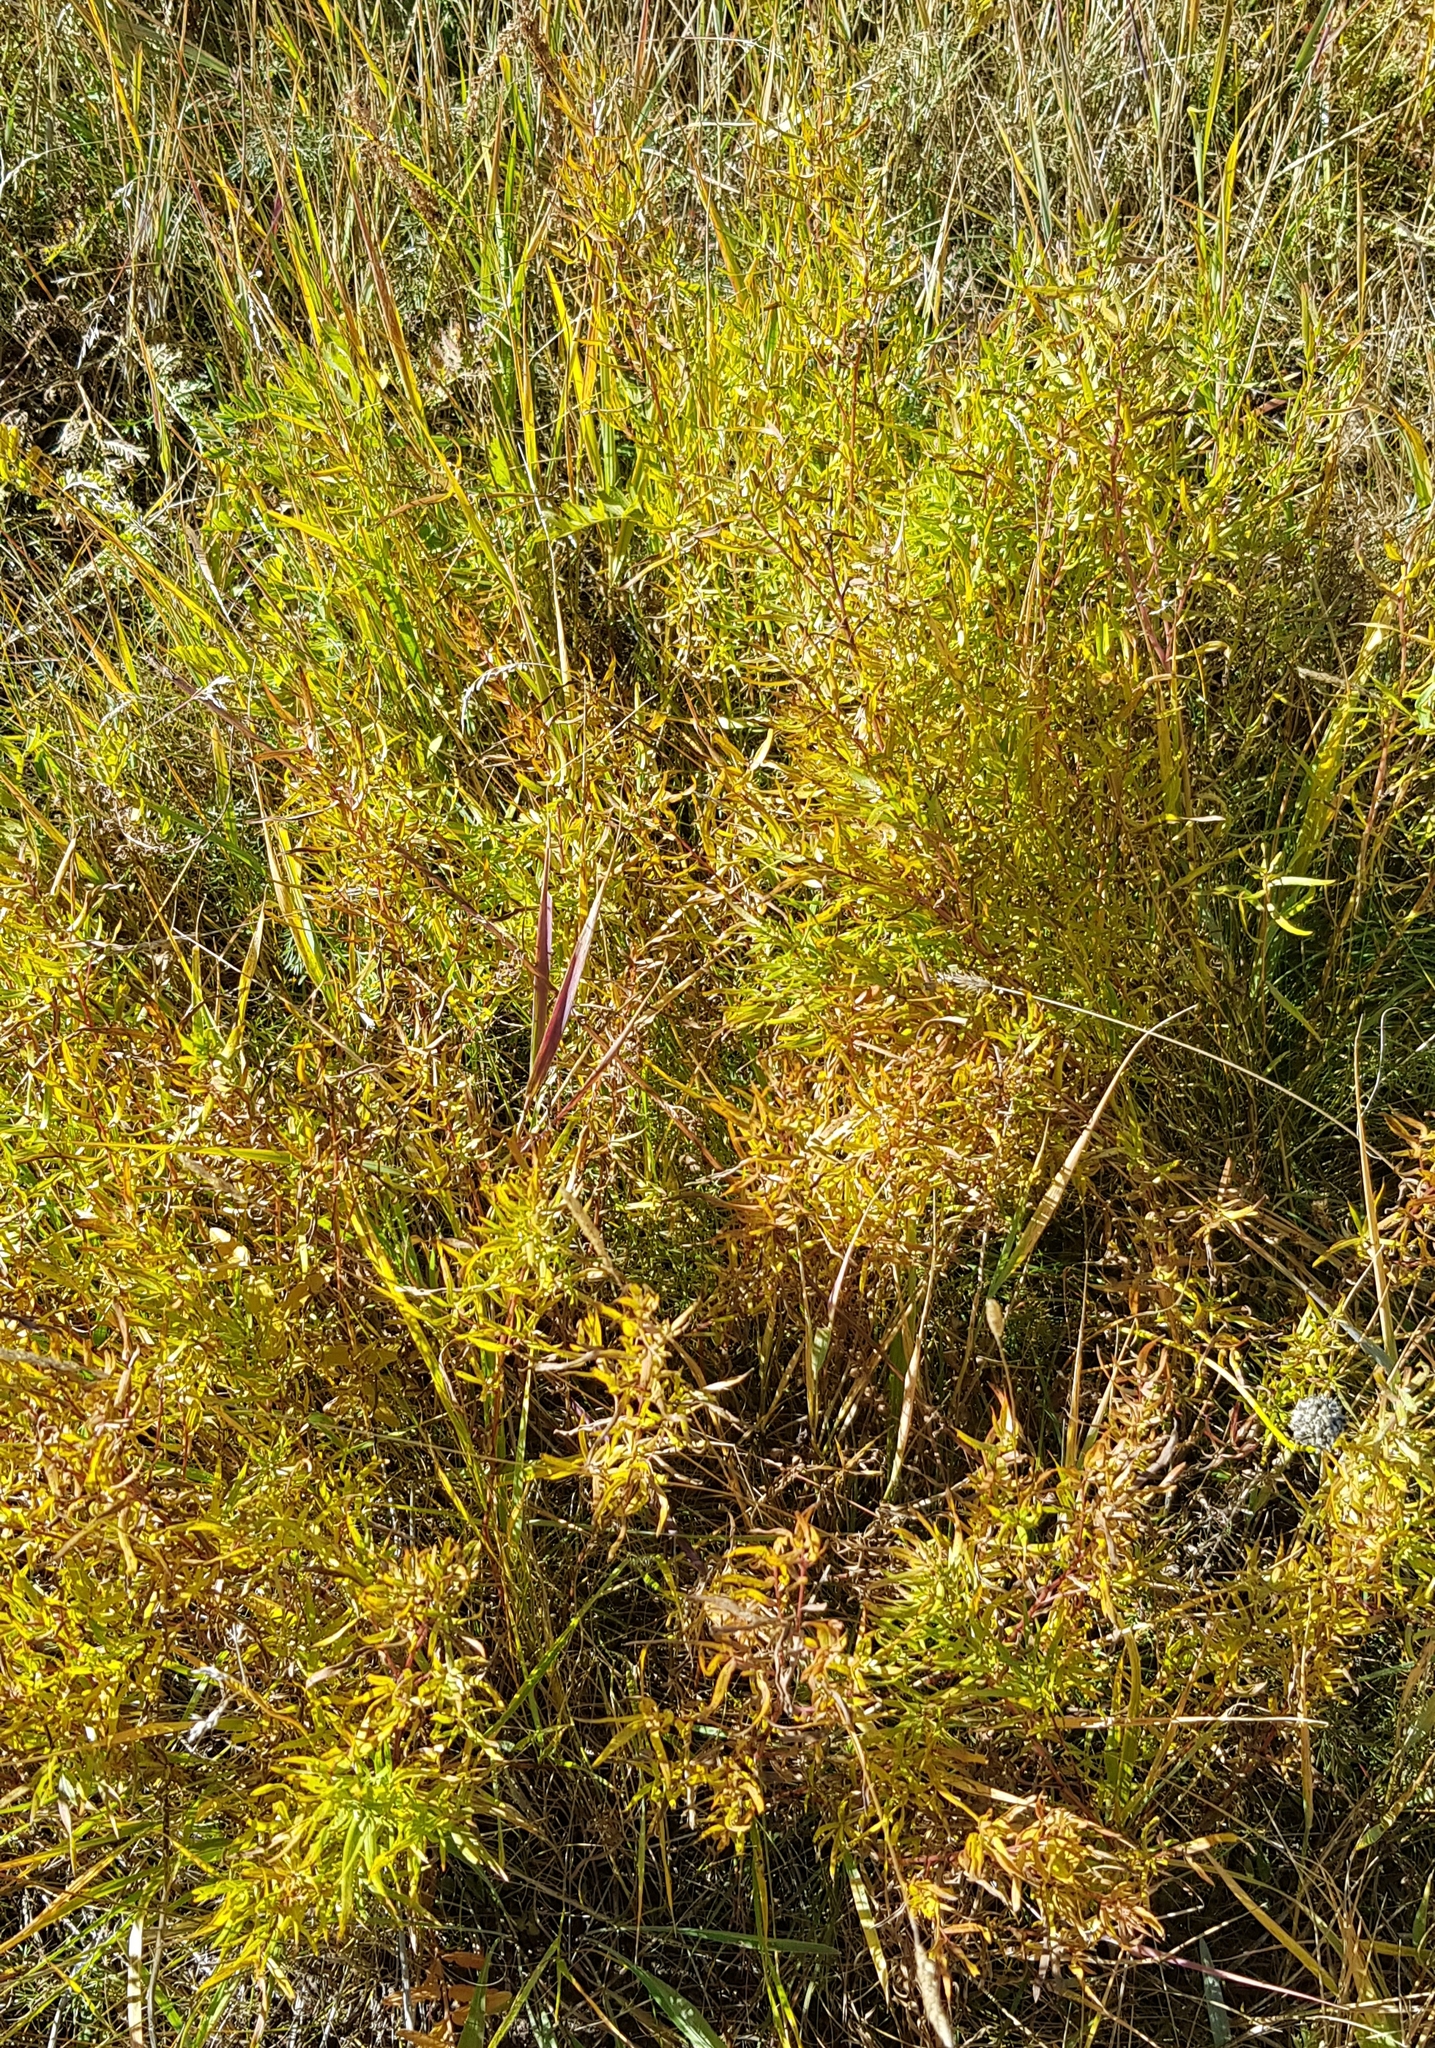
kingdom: Plantae
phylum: Tracheophyta
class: Magnoliopsida
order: Asterales
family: Asteraceae
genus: Artemisia
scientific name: Artemisia dracunculus
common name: Tarragon
